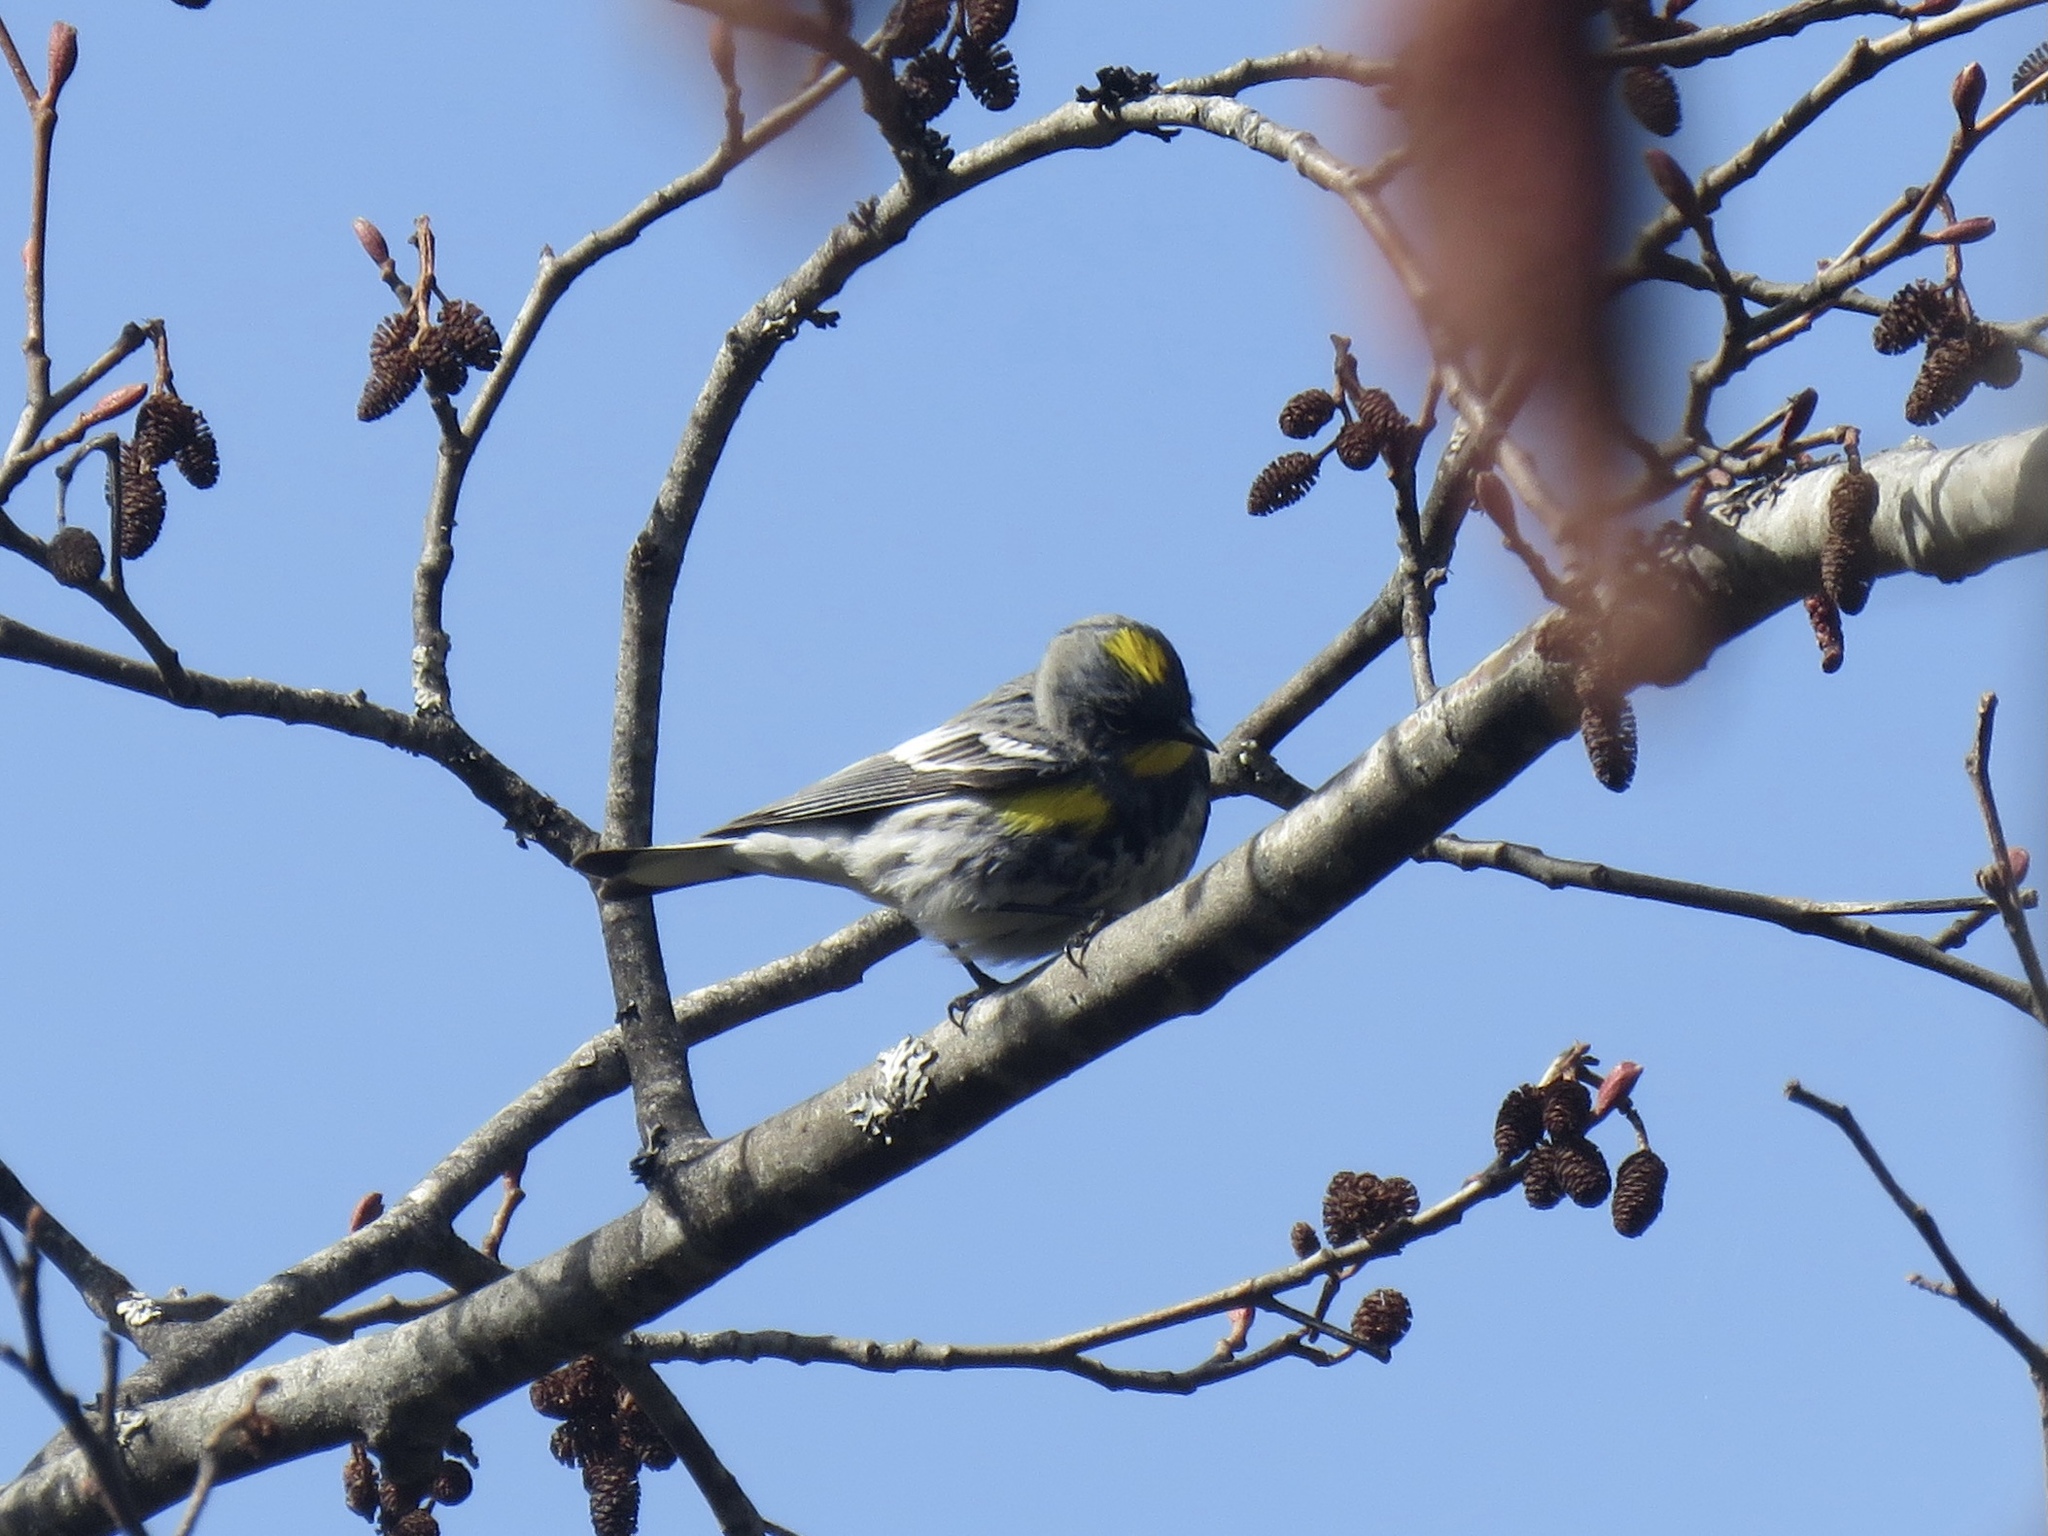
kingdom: Animalia
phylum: Chordata
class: Aves
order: Passeriformes
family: Parulidae
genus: Setophaga
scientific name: Setophaga coronata
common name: Myrtle warbler
